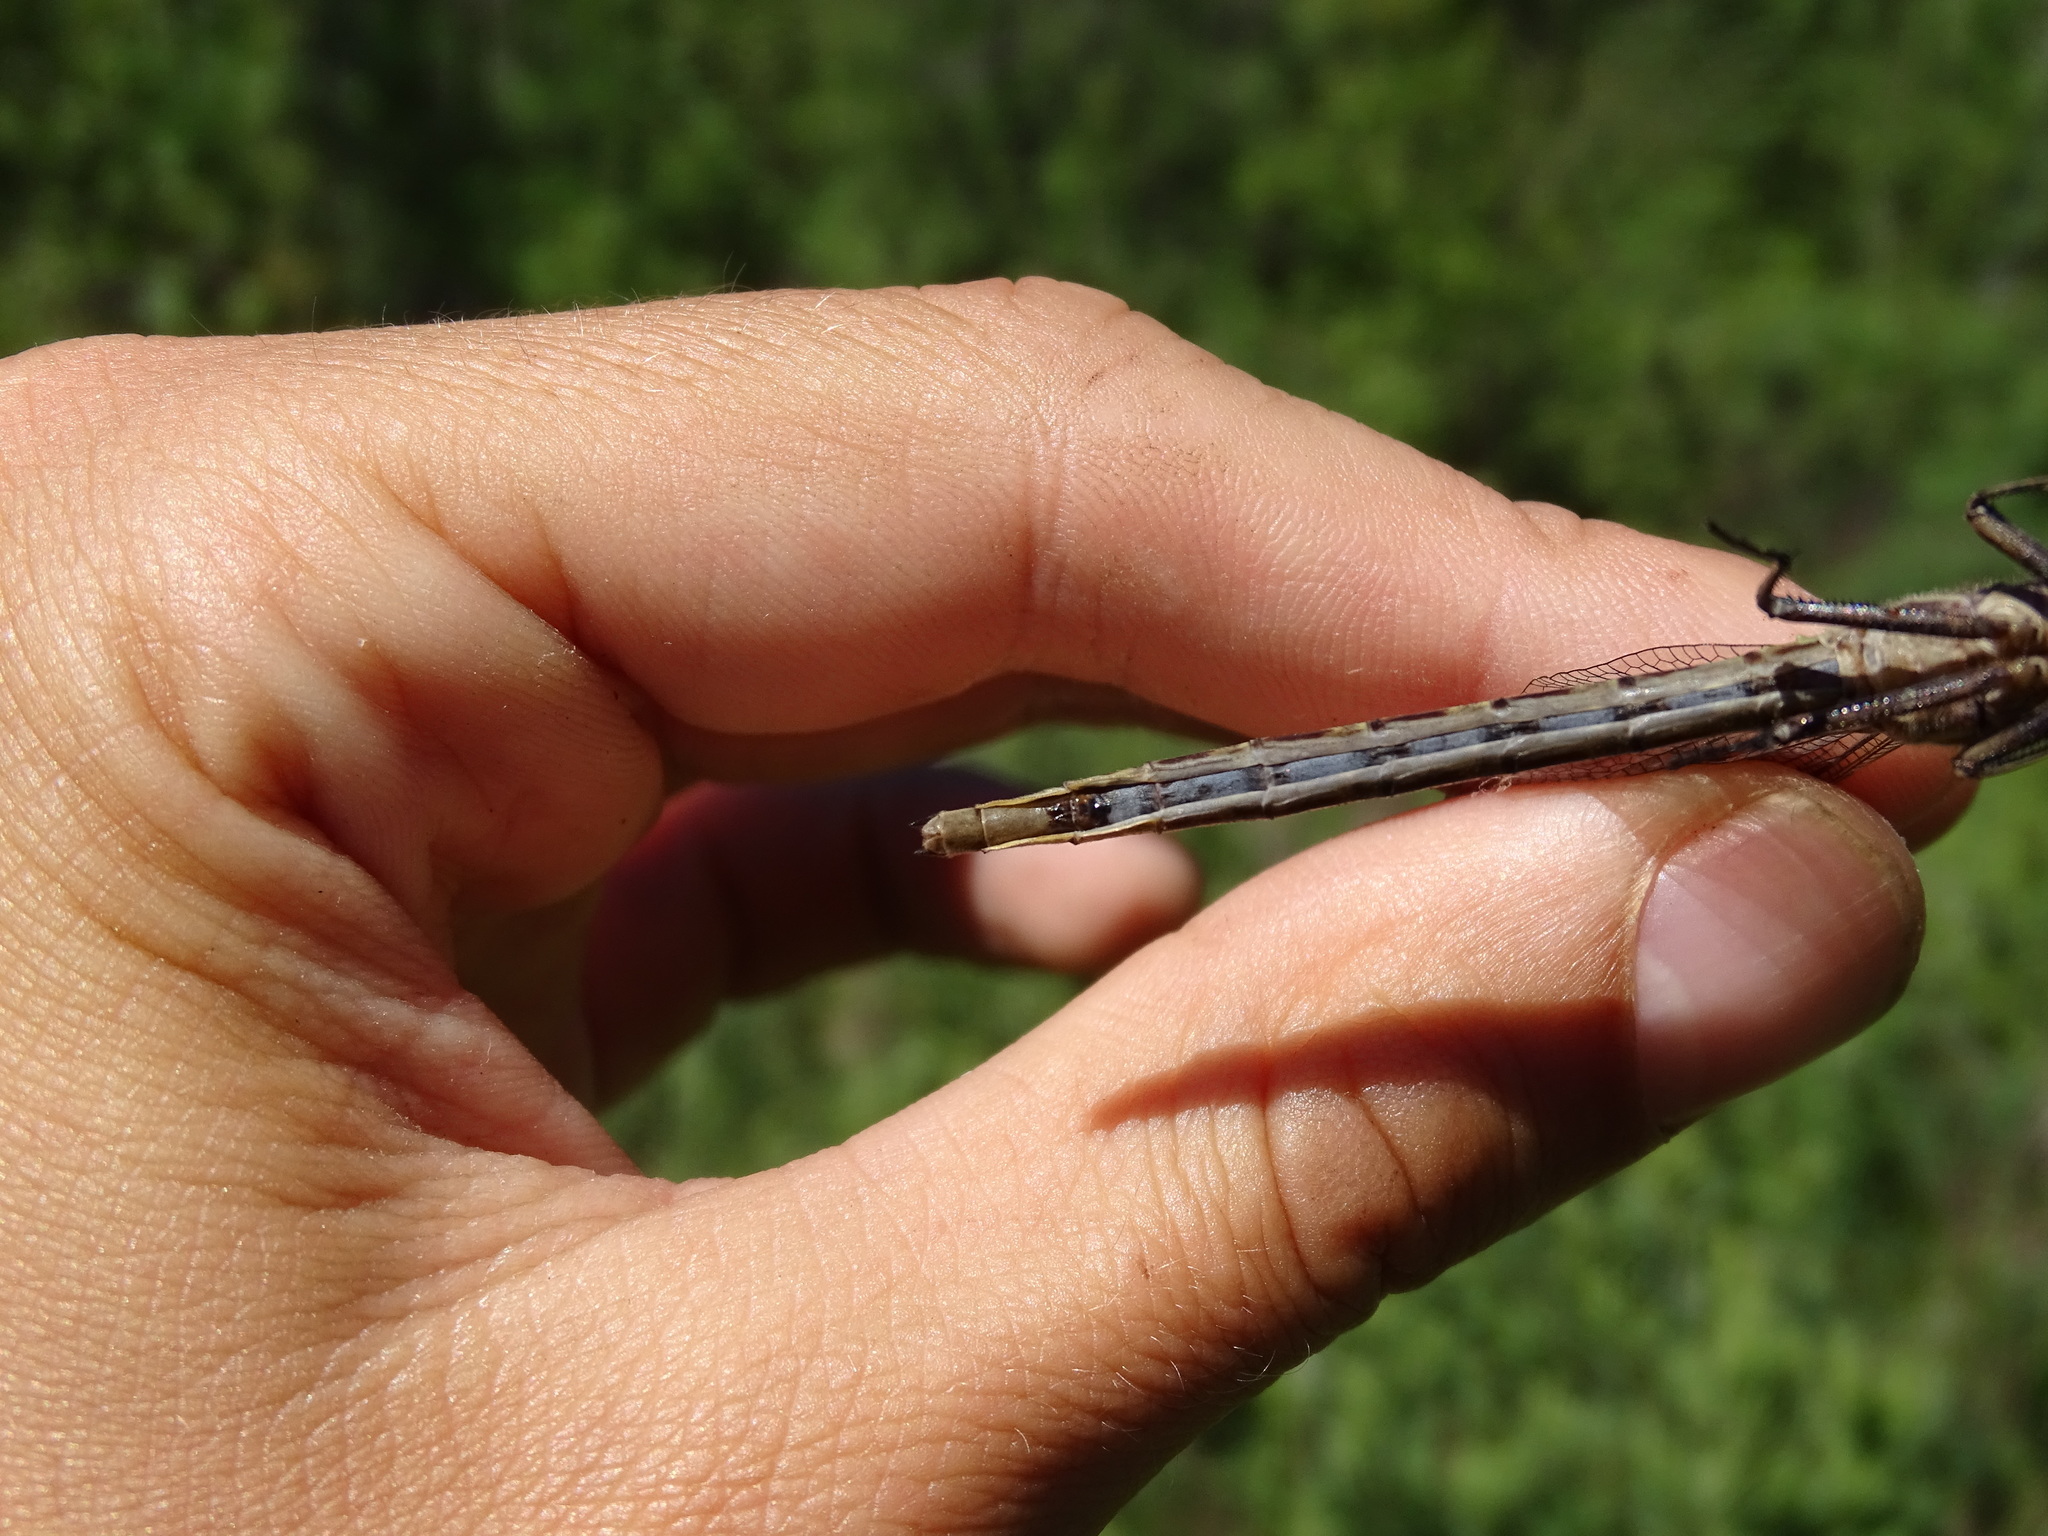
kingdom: Animalia
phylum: Arthropoda
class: Insecta
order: Odonata
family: Gomphidae
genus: Phanogomphus
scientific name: Phanogomphus spicatus
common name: Dusky clubtail
